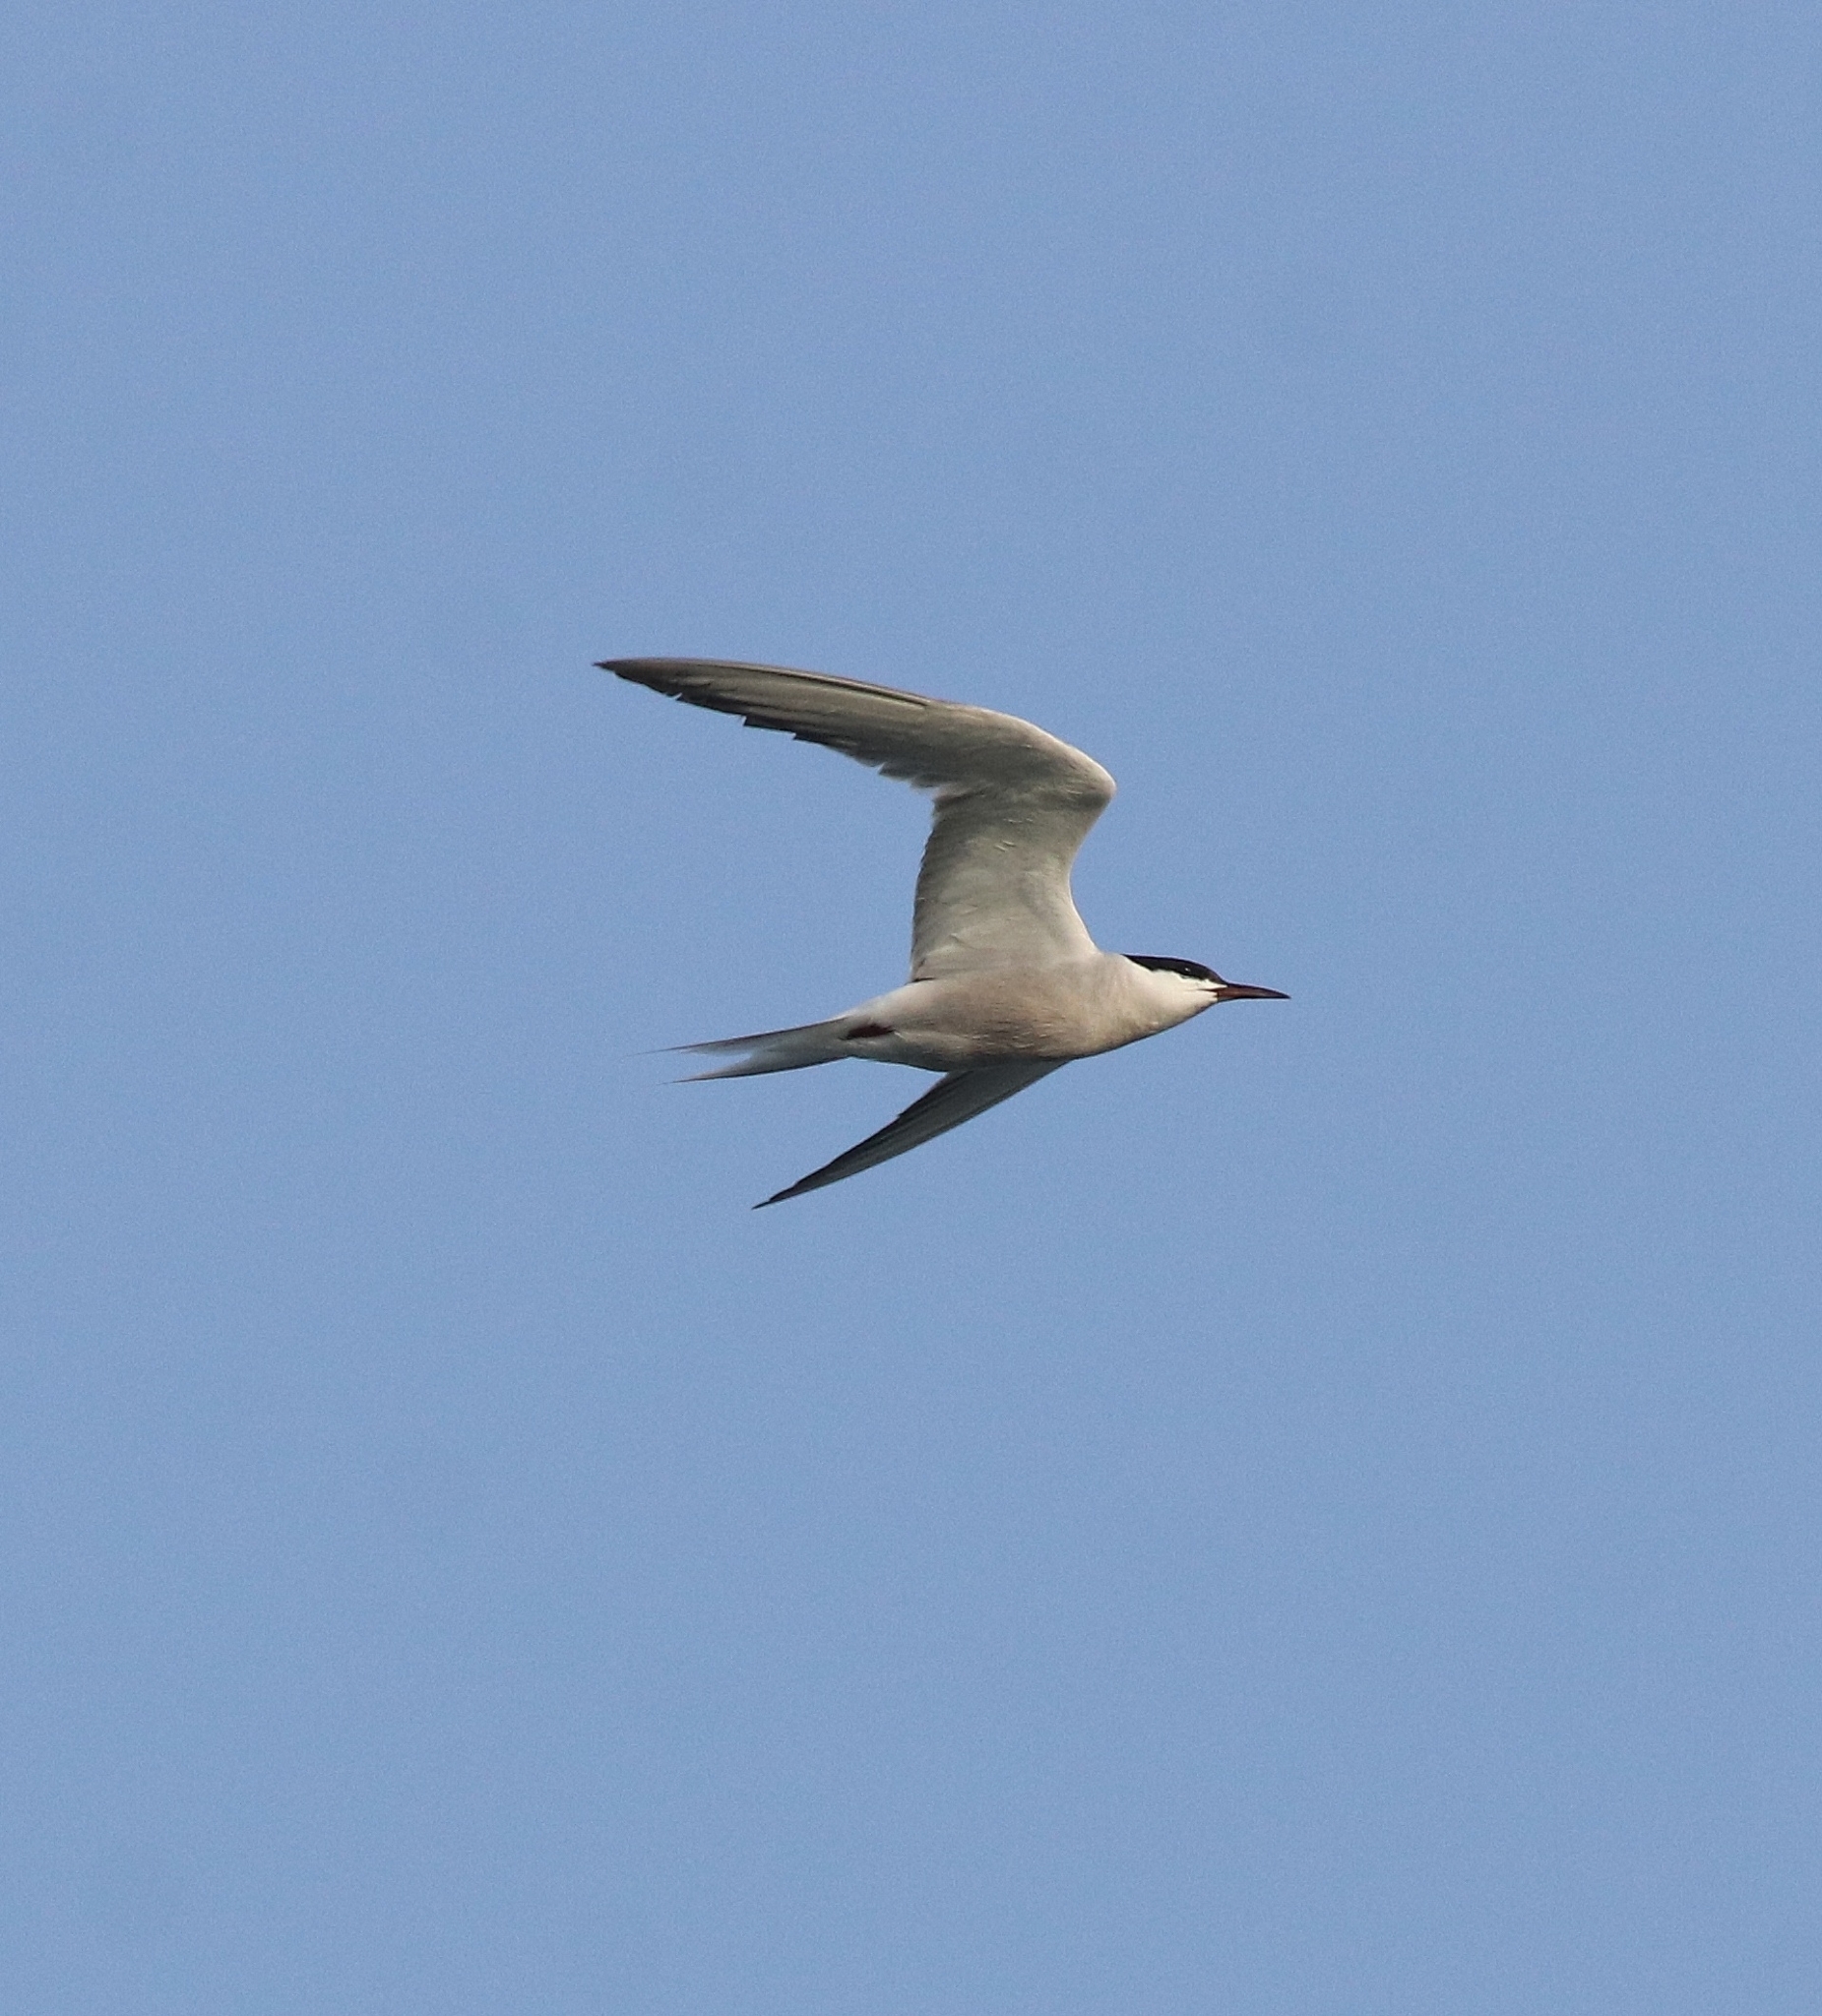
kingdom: Animalia
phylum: Chordata
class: Aves
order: Charadriiformes
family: Laridae
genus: Sterna
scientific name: Sterna hirundo
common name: Common tern
